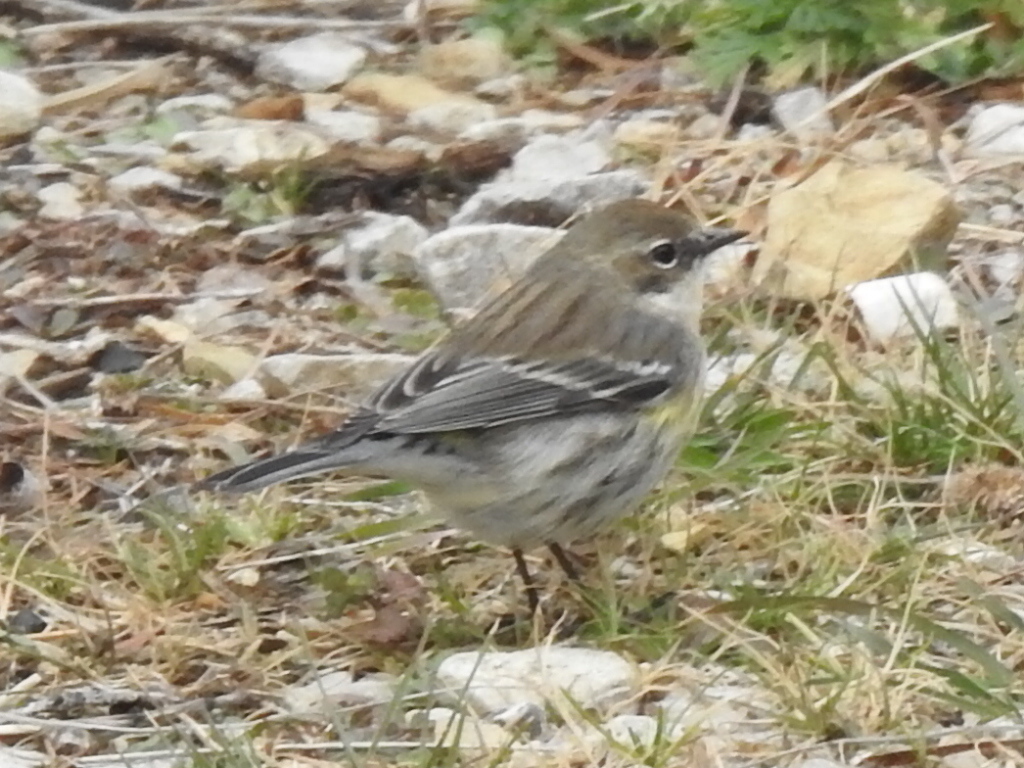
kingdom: Animalia
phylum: Chordata
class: Aves
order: Passeriformes
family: Parulidae
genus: Setophaga
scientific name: Setophaga coronata
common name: Myrtle warbler
